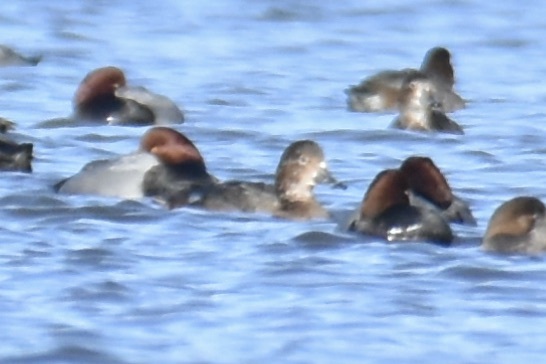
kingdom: Animalia
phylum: Chordata
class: Aves
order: Anseriformes
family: Anatidae
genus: Aythya
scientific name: Aythya americana
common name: Redhead
